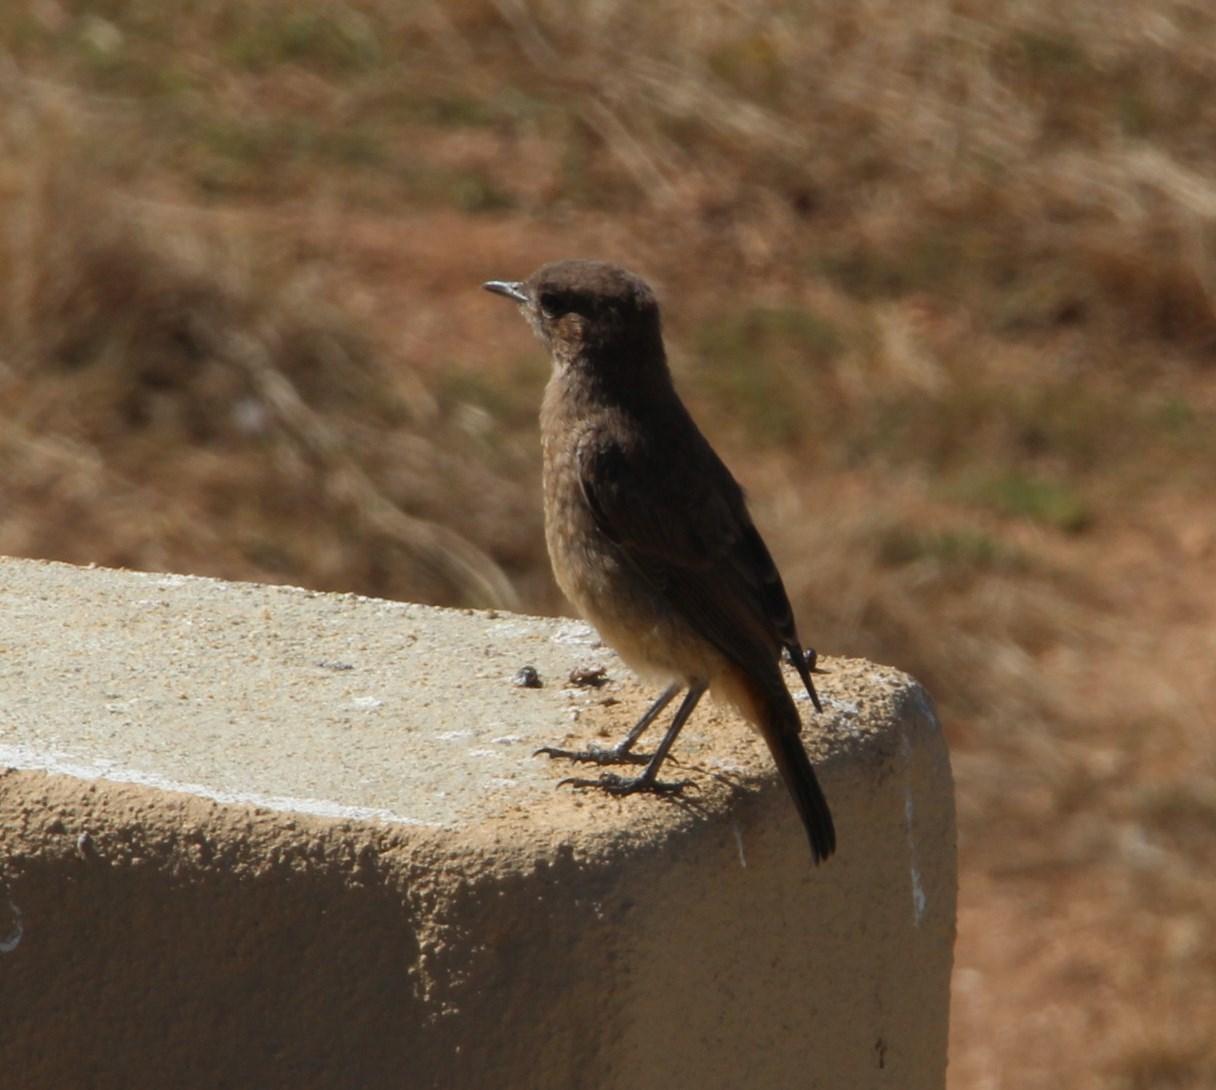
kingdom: Animalia
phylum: Chordata
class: Aves
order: Passeriformes
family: Muscicapidae
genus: Oenanthe
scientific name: Oenanthe familiaris
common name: Familiar chat
